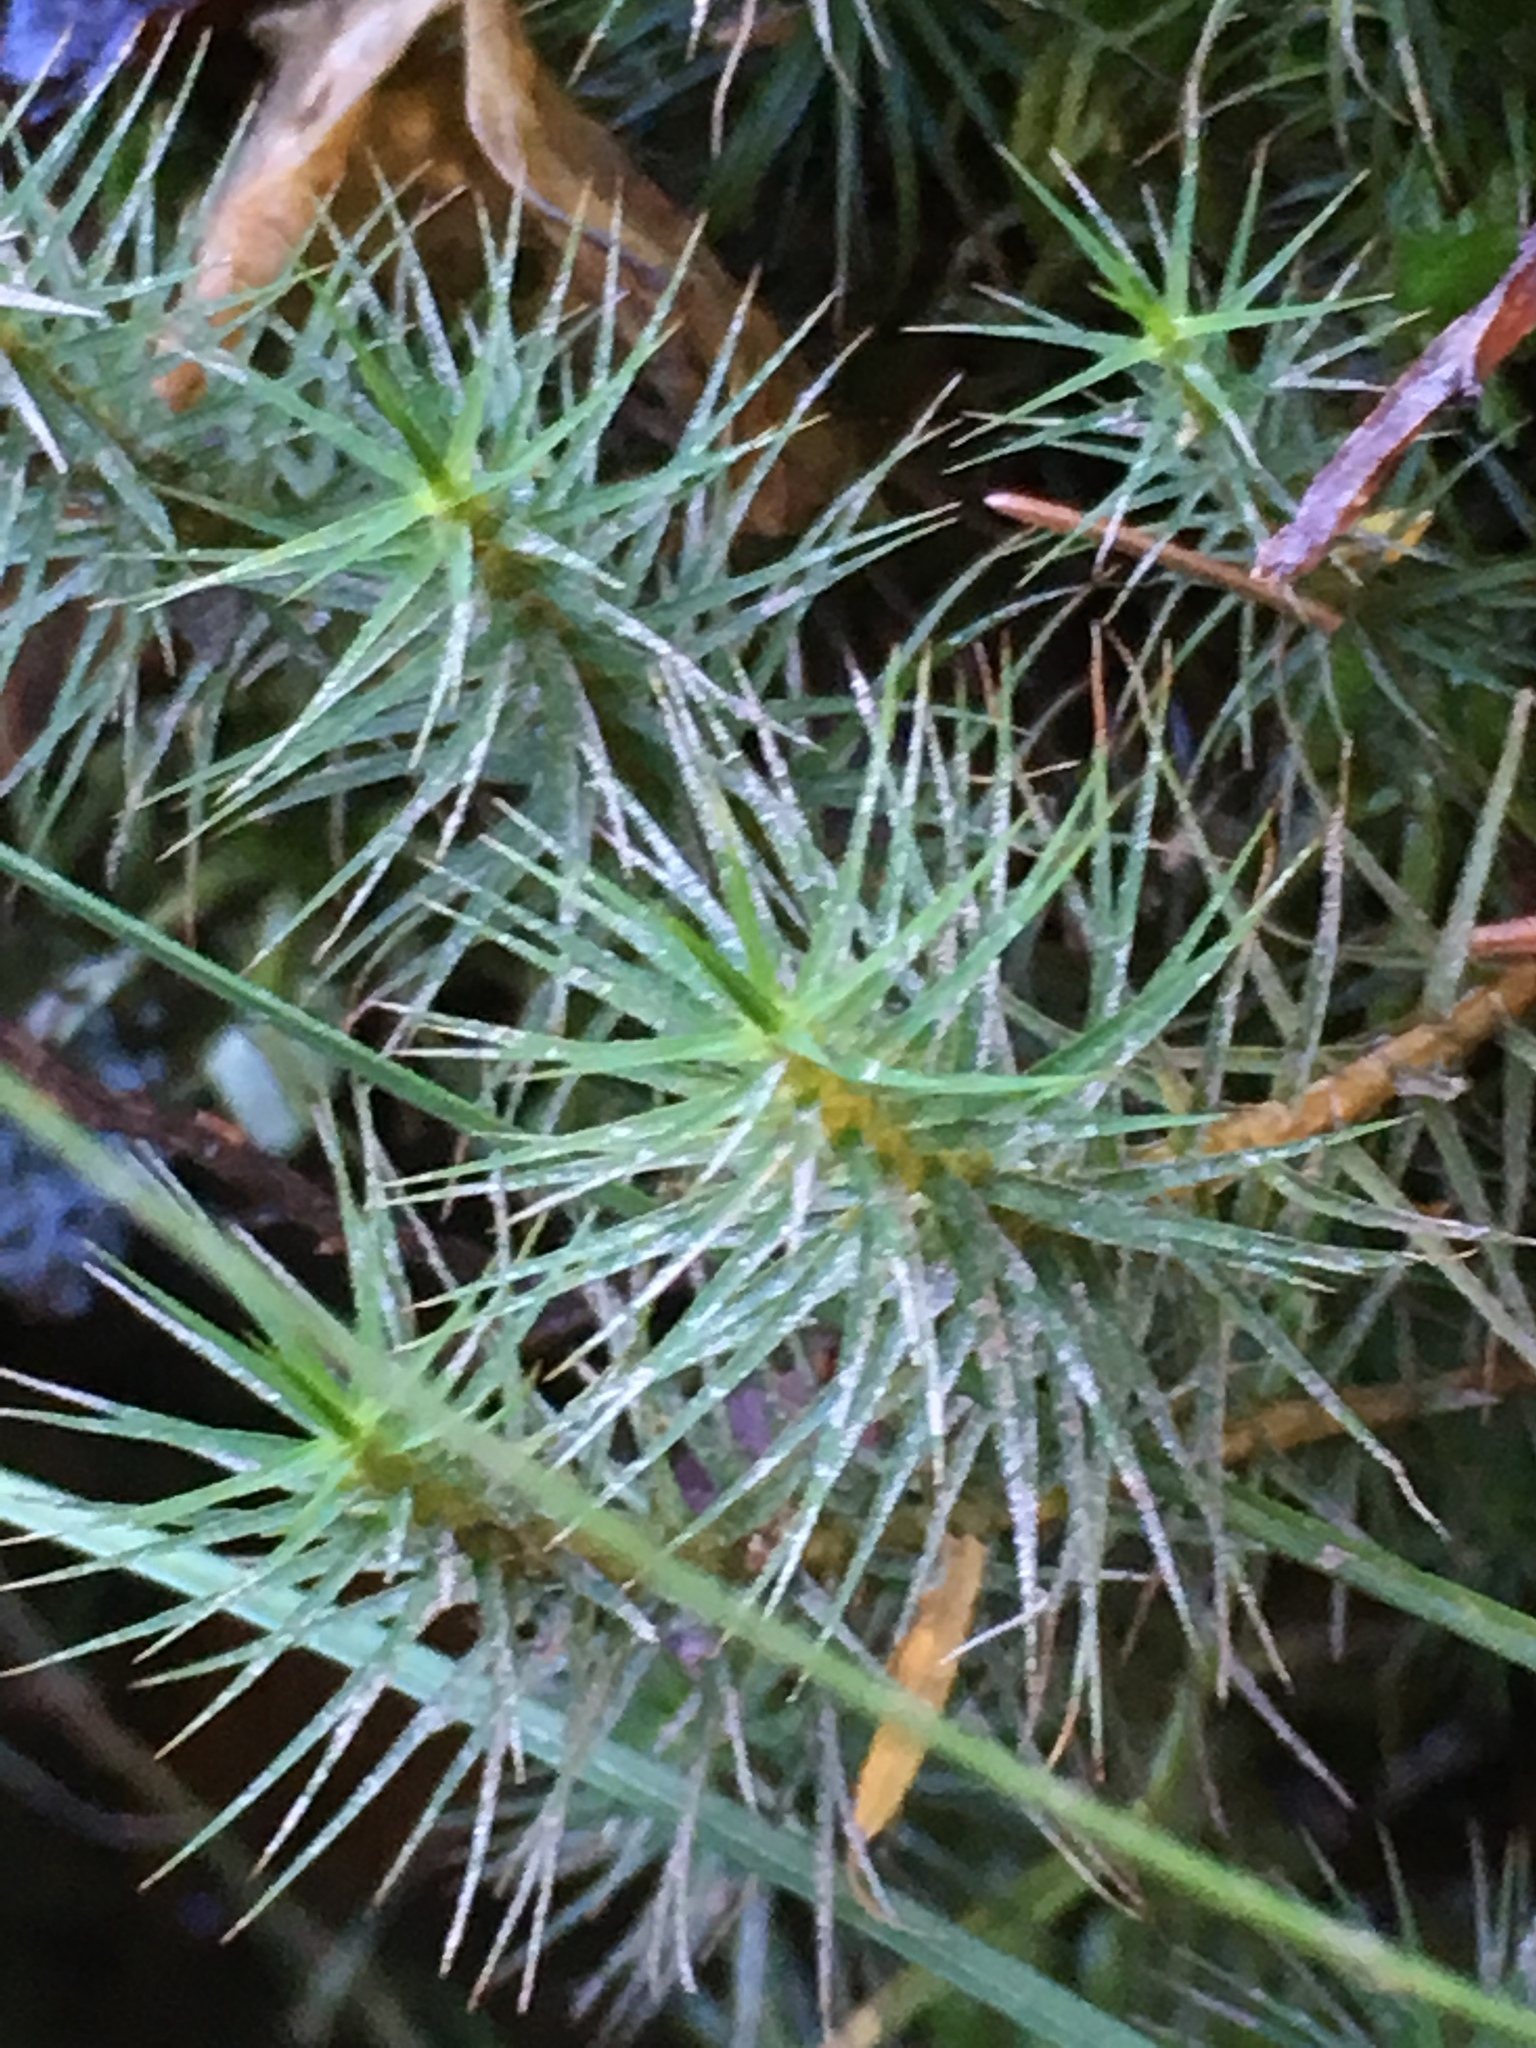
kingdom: Plantae
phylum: Bryophyta
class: Polytrichopsida
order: Polytrichales
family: Polytrichaceae
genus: Polytrichum
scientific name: Polytrichum commune
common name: Common haircap
